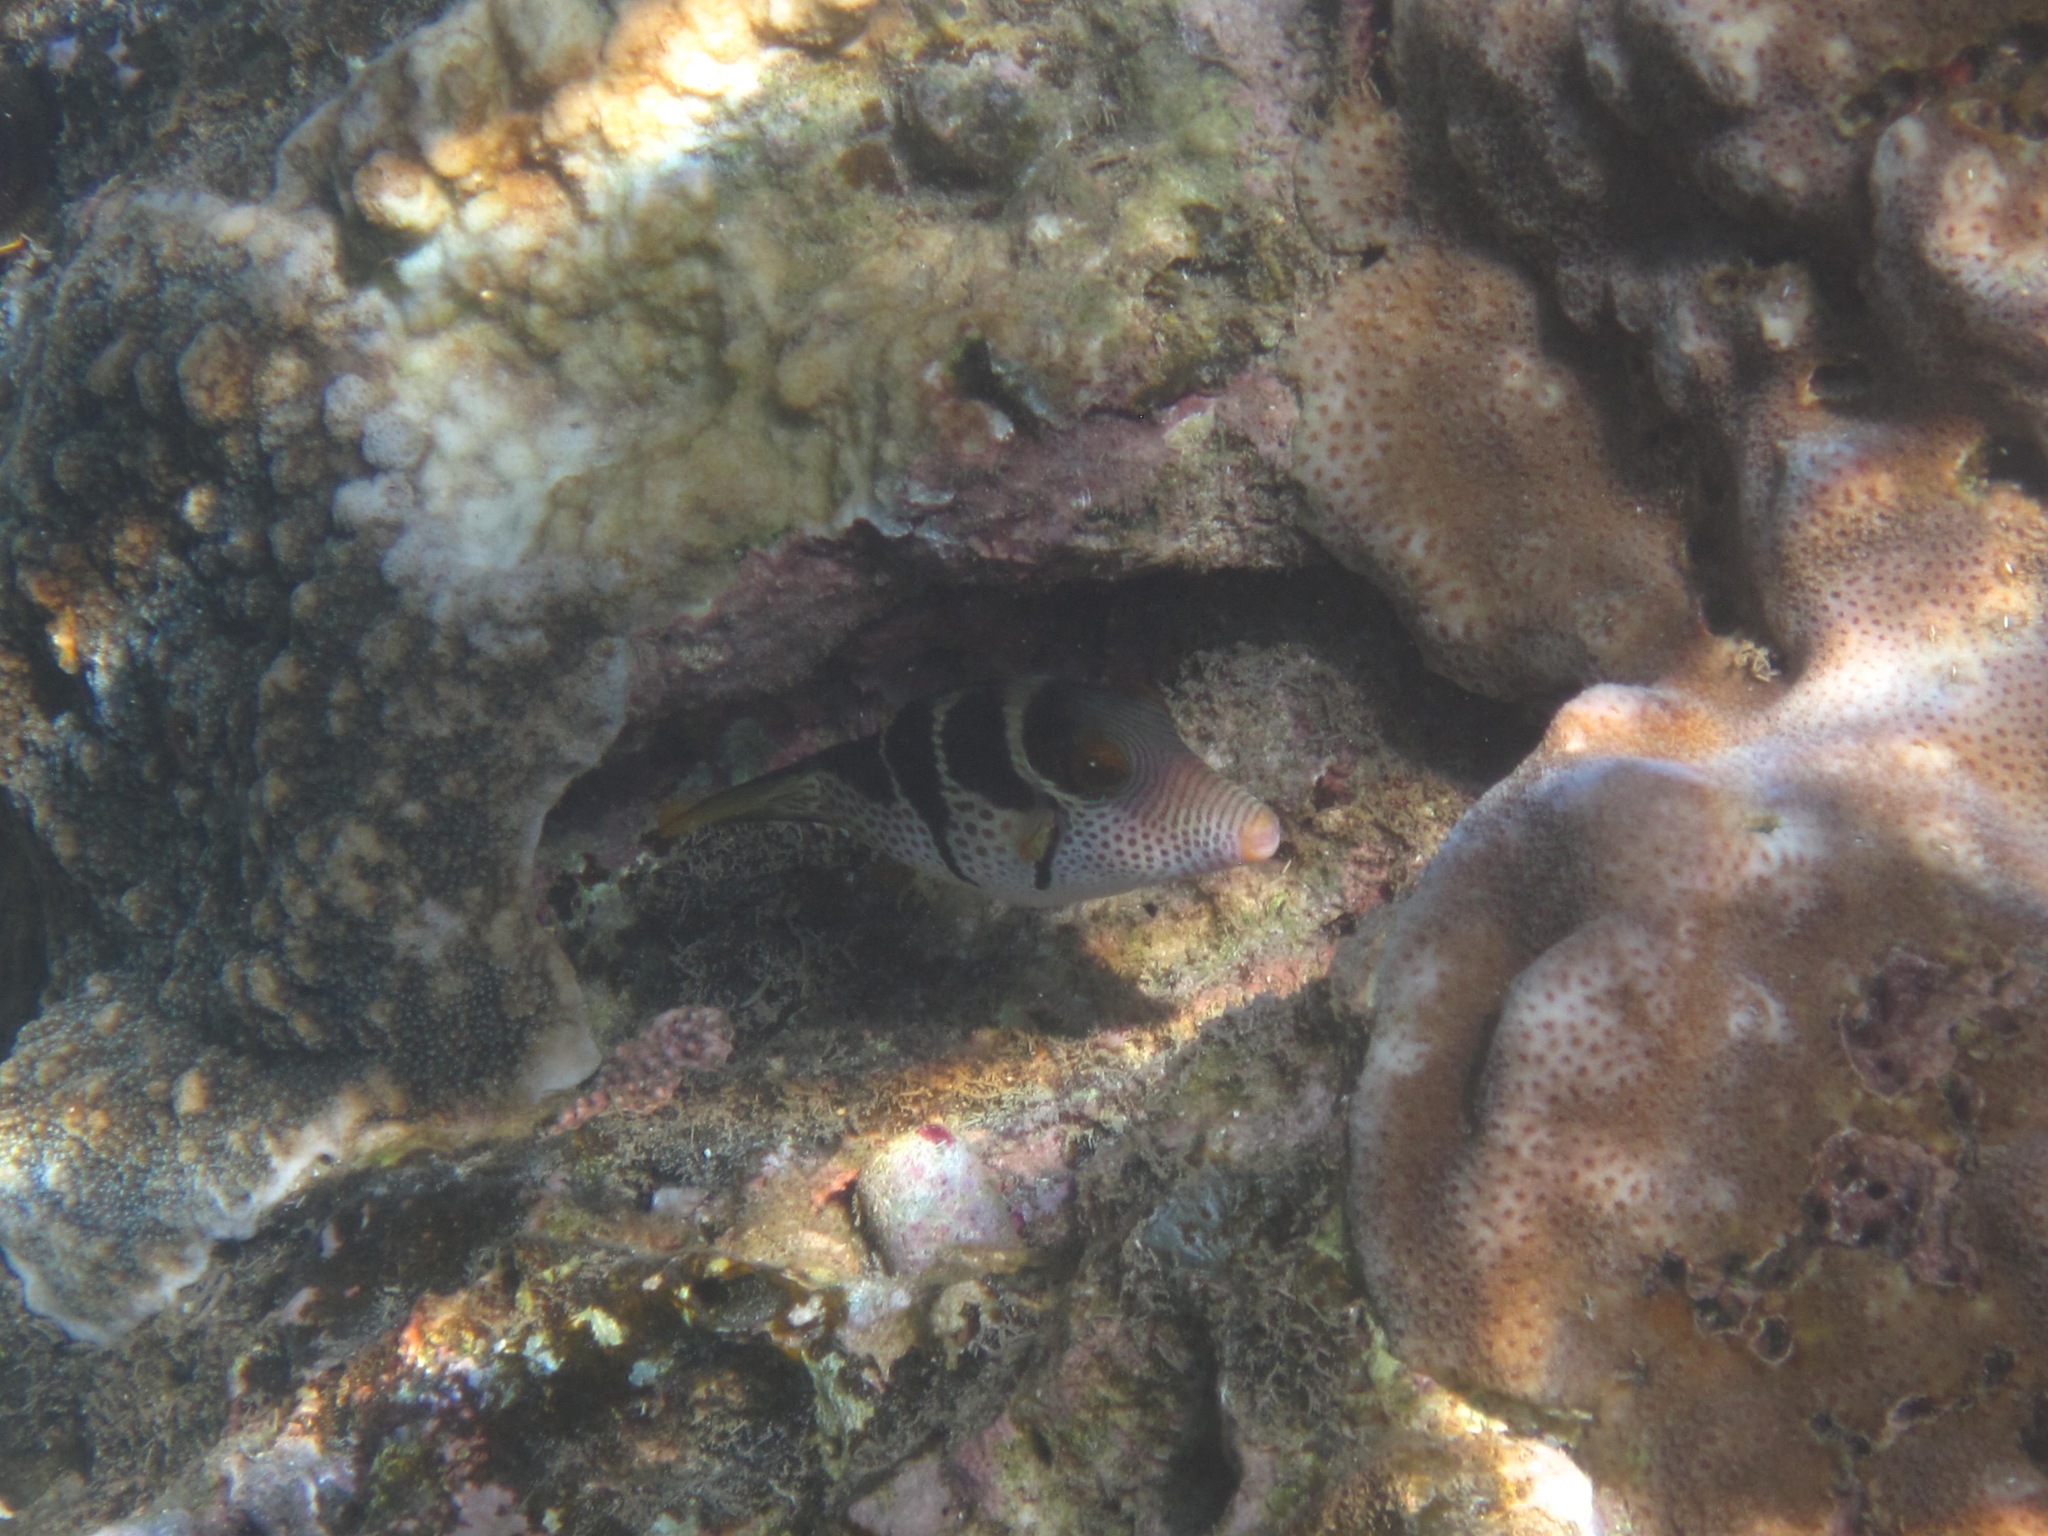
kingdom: Animalia
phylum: Chordata
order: Tetraodontiformes
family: Tetraodontidae
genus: Canthigaster
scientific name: Canthigaster valentini
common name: Banded toby
